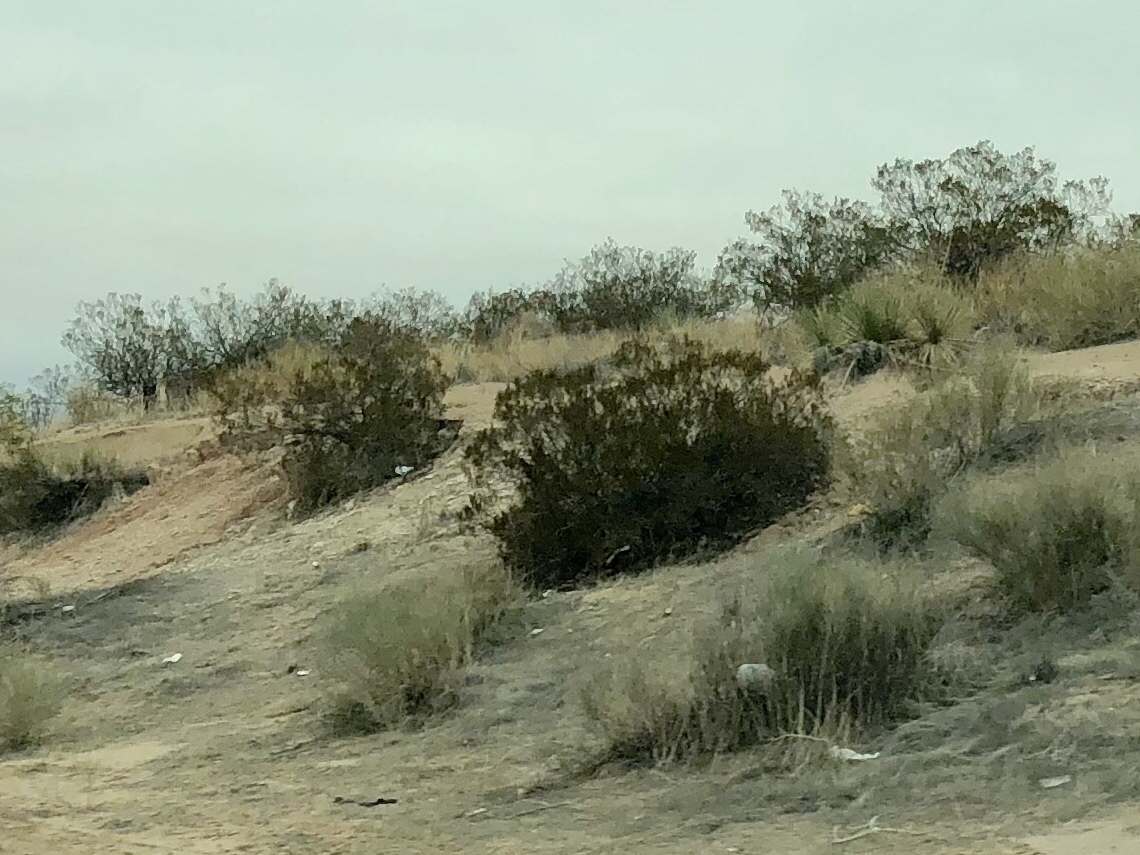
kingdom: Plantae
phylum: Tracheophyta
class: Magnoliopsida
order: Zygophyllales
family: Zygophyllaceae
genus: Larrea
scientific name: Larrea tridentata
